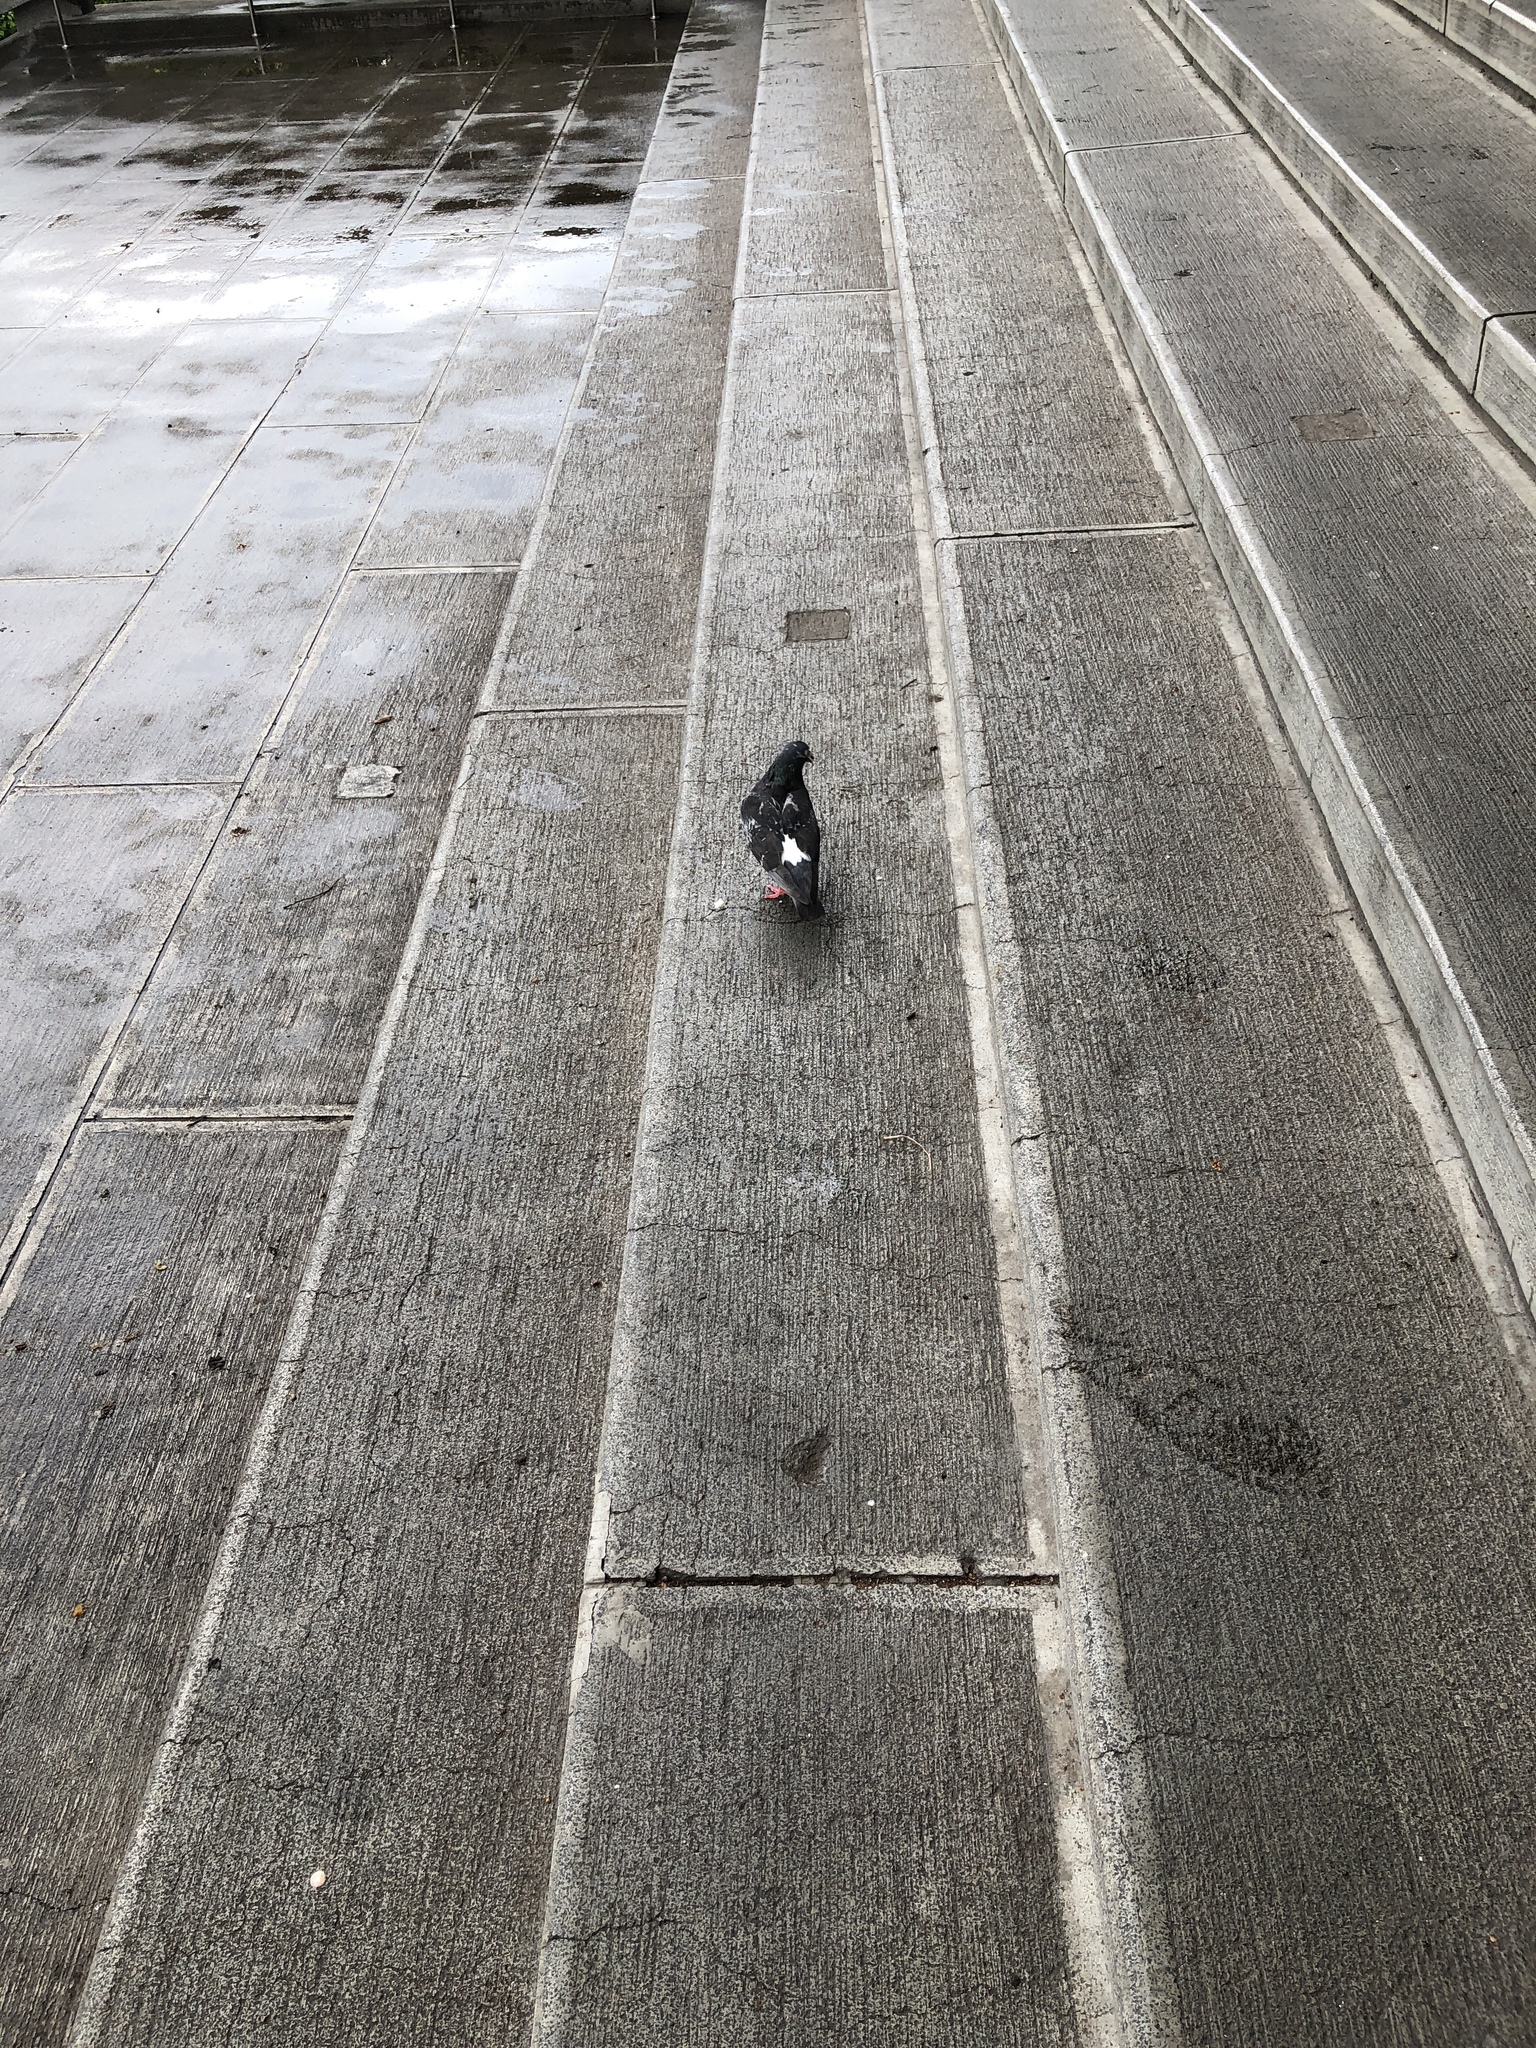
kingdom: Animalia
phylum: Chordata
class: Aves
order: Columbiformes
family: Columbidae
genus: Columba
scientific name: Columba livia
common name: Rock pigeon
